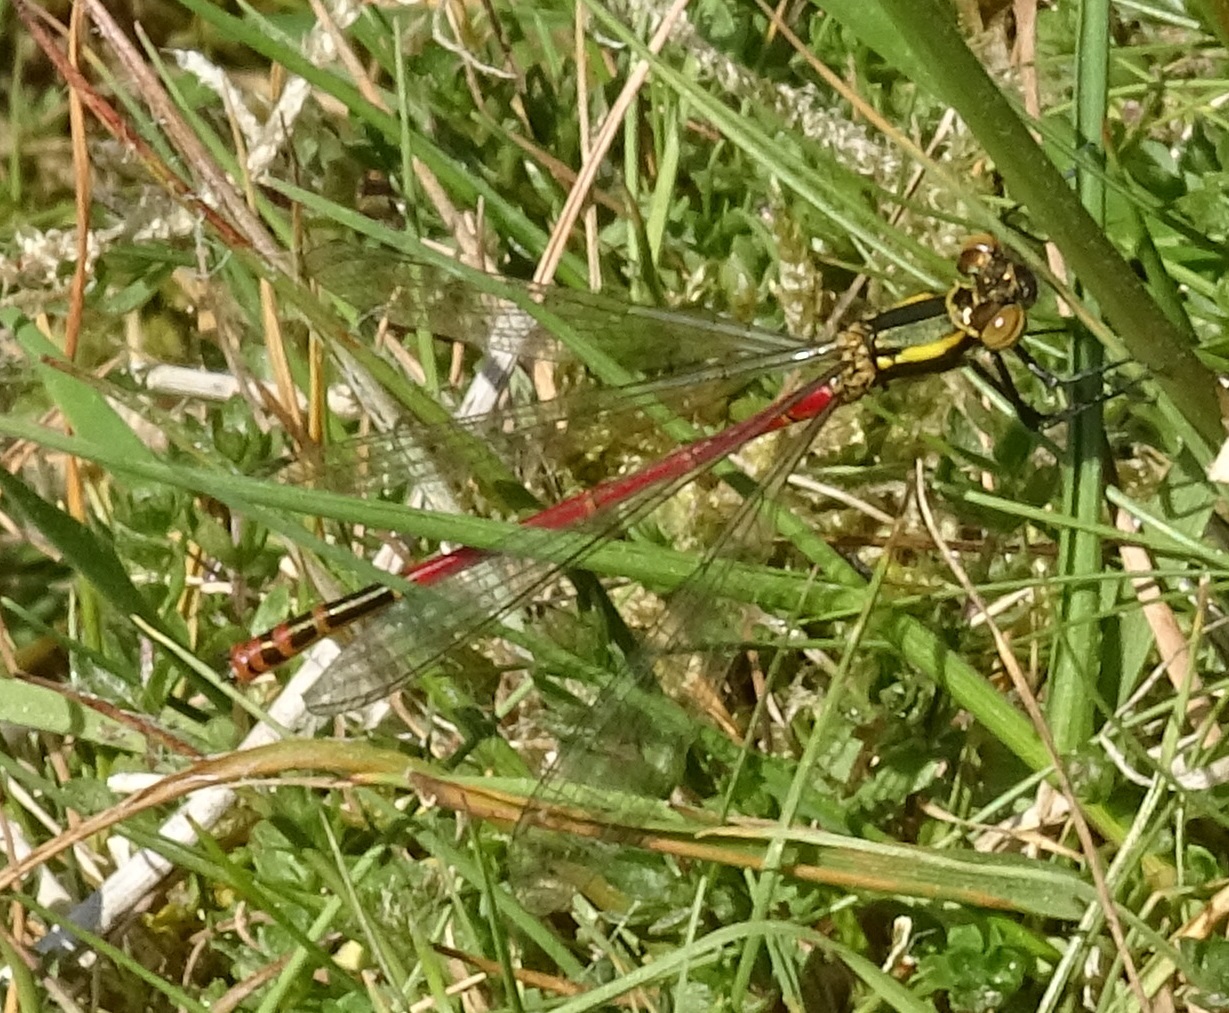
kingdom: Animalia
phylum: Arthropoda
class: Insecta
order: Odonata
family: Coenagrionidae
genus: Pyrrhosoma
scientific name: Pyrrhosoma nymphula
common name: Large red damsel
